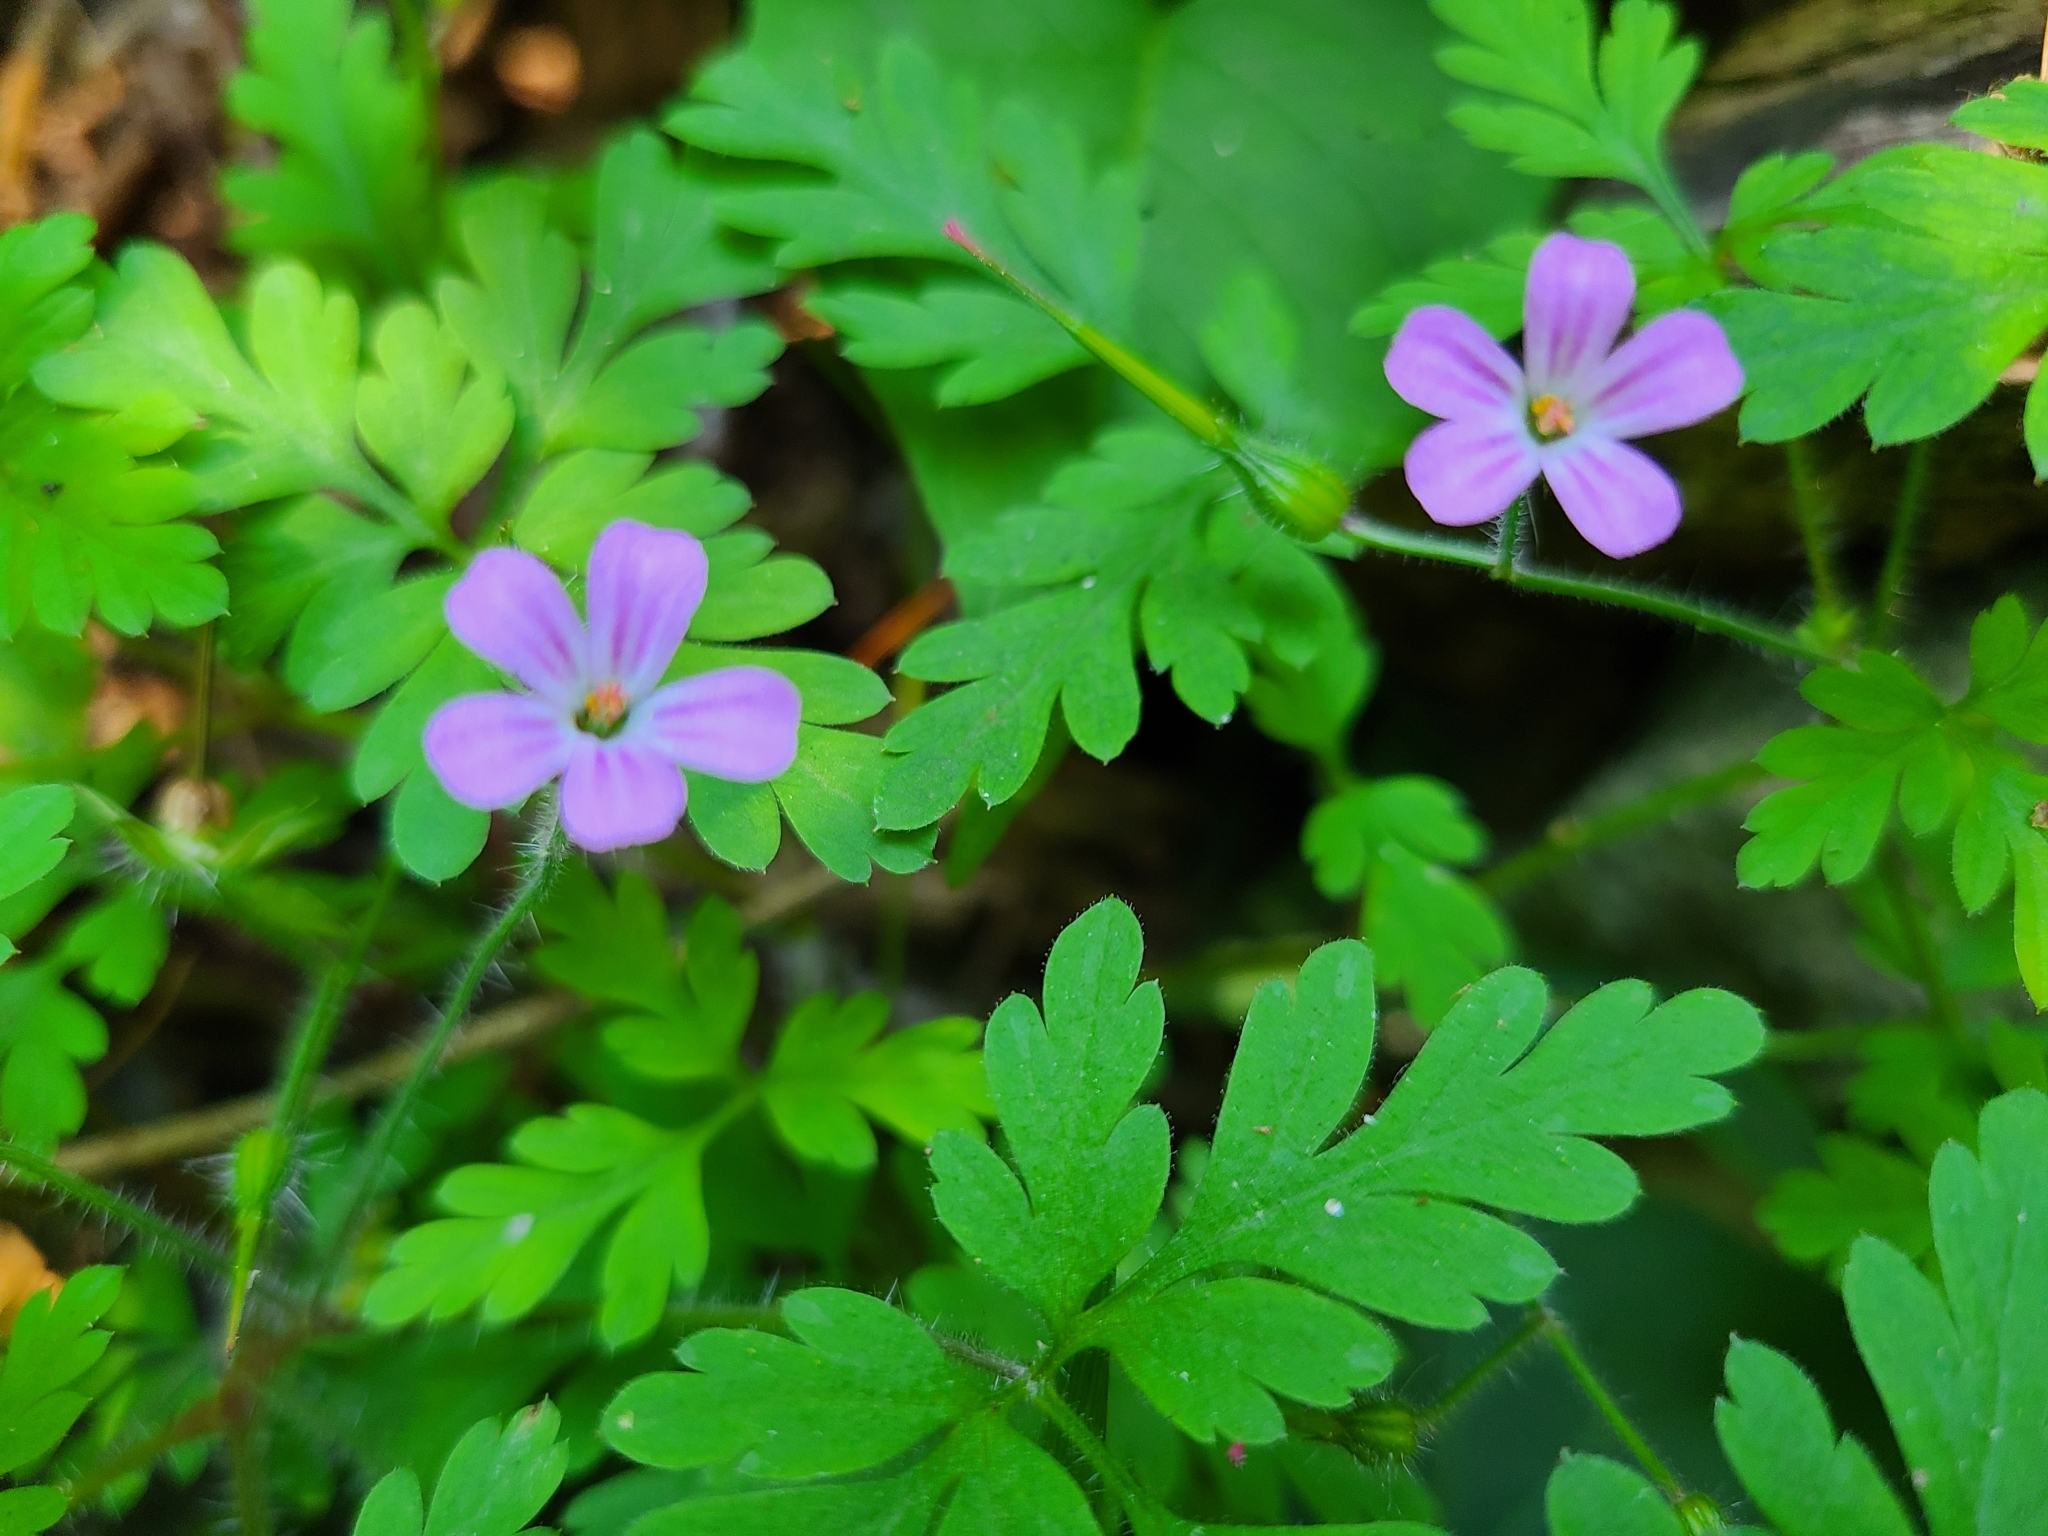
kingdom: Plantae
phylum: Tracheophyta
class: Magnoliopsida
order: Geraniales
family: Geraniaceae
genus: Geranium
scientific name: Geranium robertianum
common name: Herb-robert
